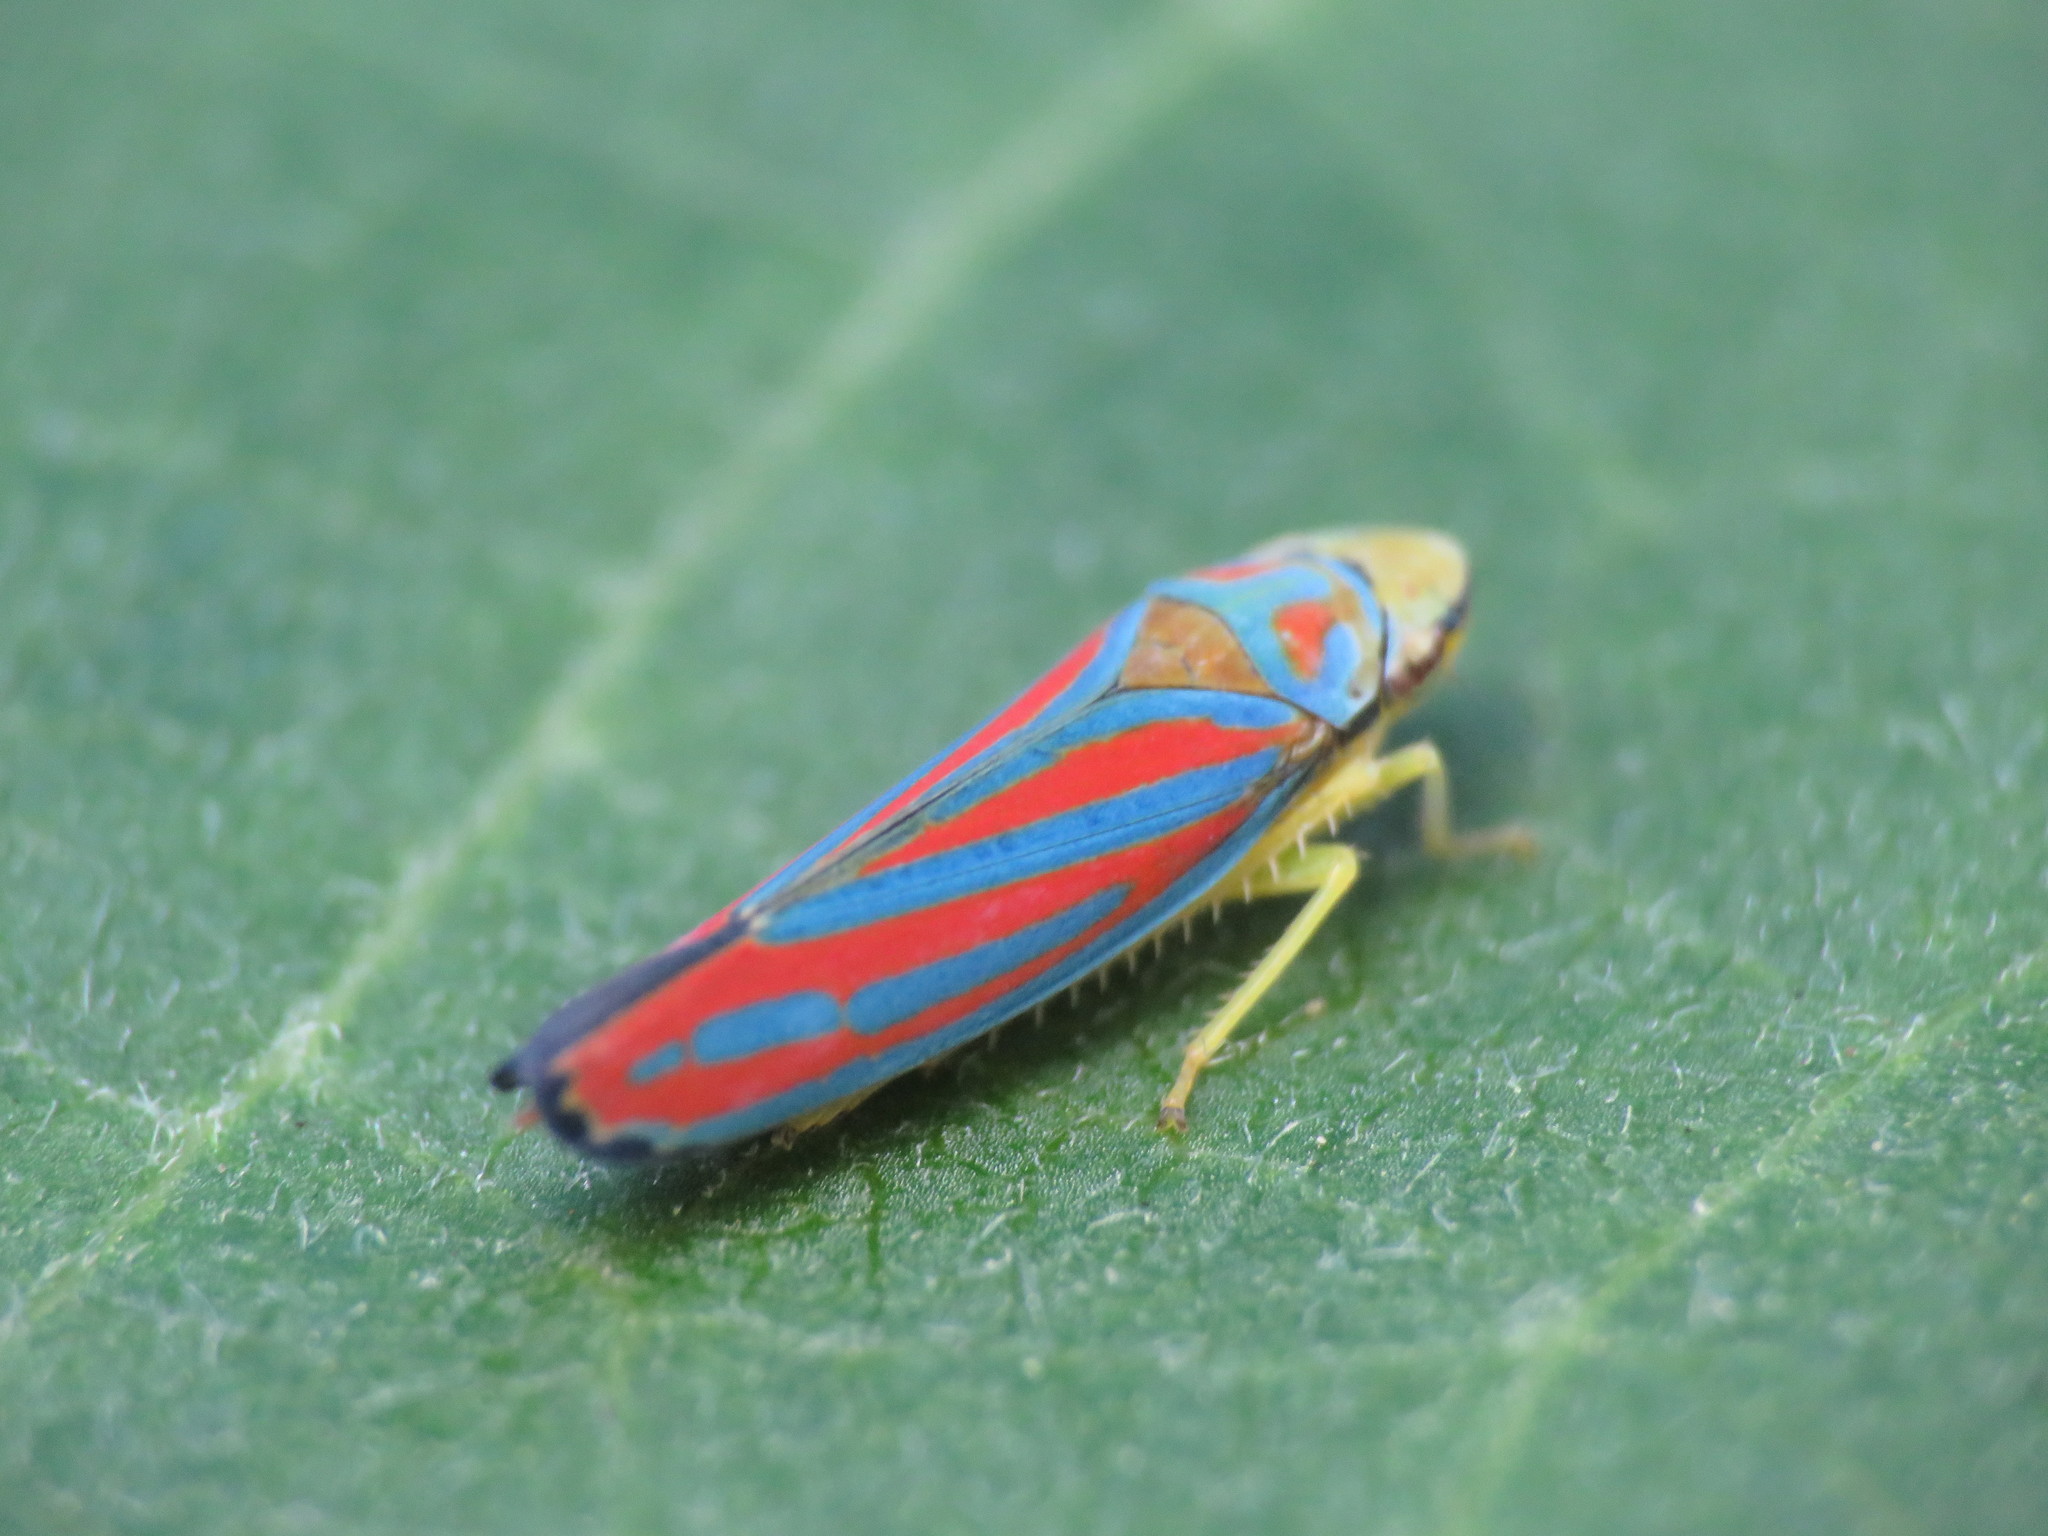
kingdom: Animalia
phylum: Arthropoda
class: Insecta
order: Hemiptera
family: Cicadellidae
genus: Graphocephala
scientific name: Graphocephala coccinea
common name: Candy-striped leafhopper
